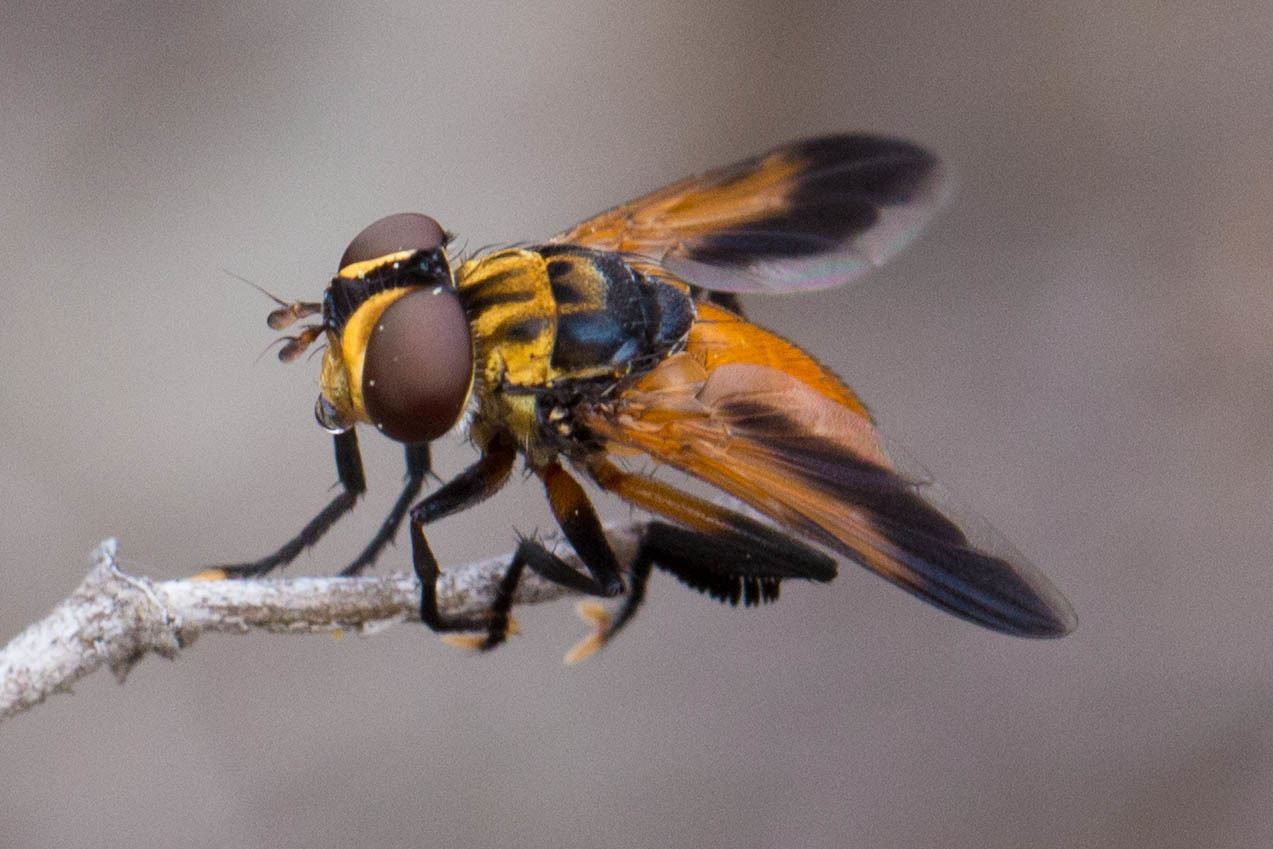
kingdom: Animalia
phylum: Arthropoda
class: Insecta
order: Diptera
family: Tachinidae
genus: Trichopoda
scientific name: Trichopoda pennipes
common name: Tachinid fly
